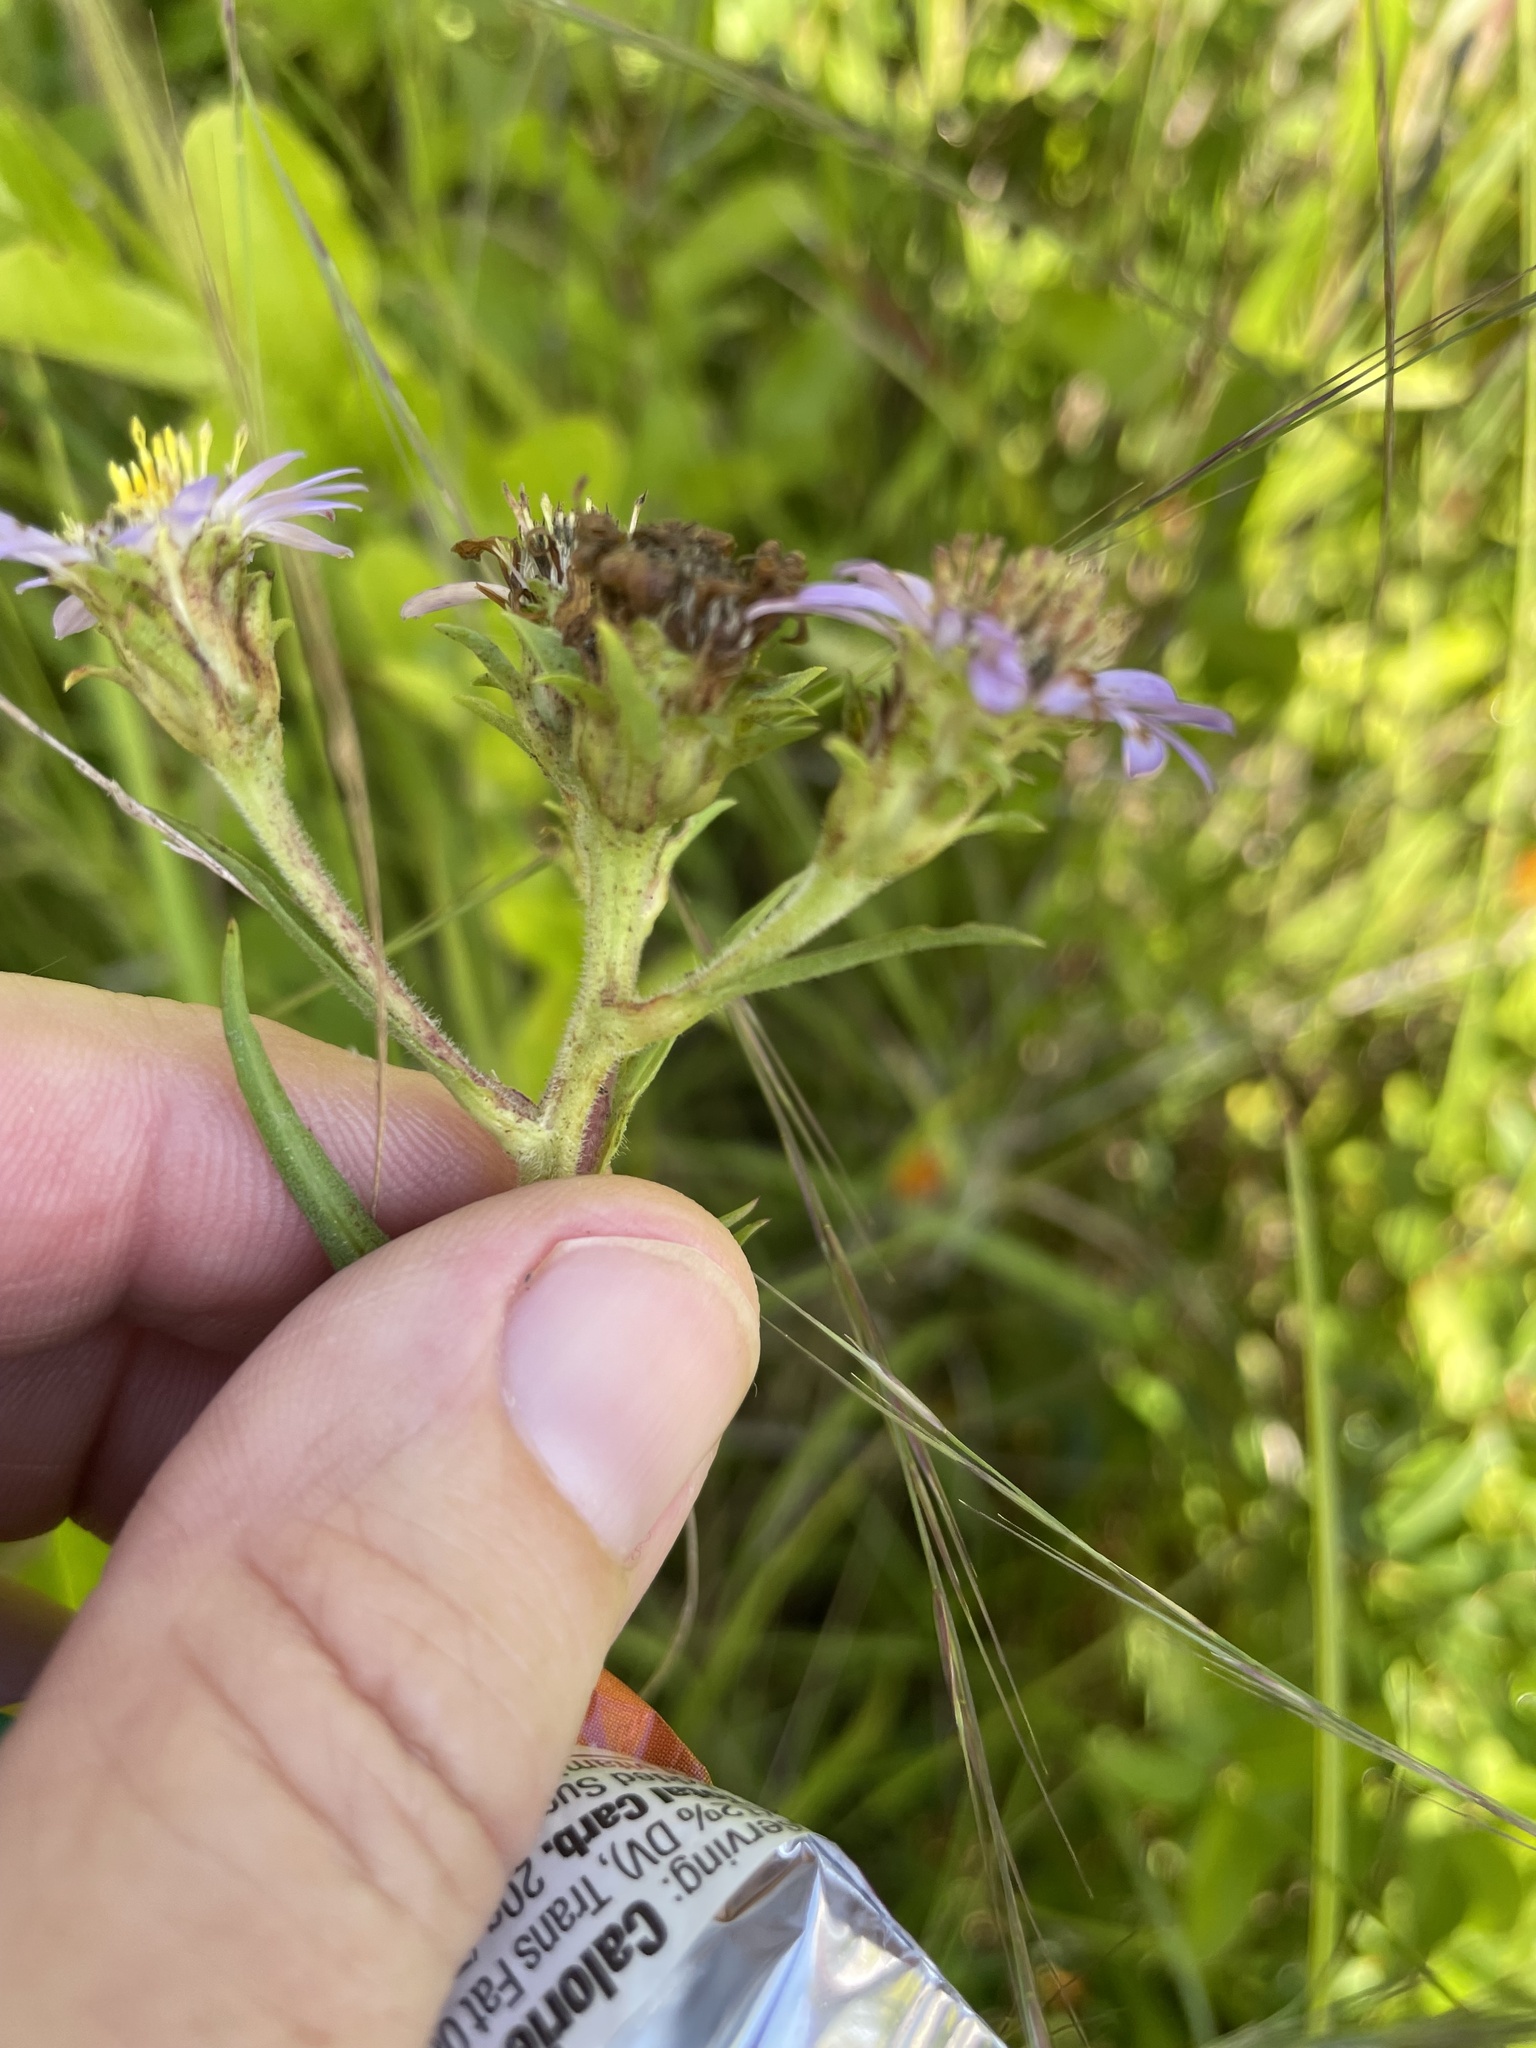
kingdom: Plantae
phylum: Tracheophyta
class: Magnoliopsida
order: Asterales
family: Asteraceae
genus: Eurybia
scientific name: Eurybia paludosa
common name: Southern swamp aster
